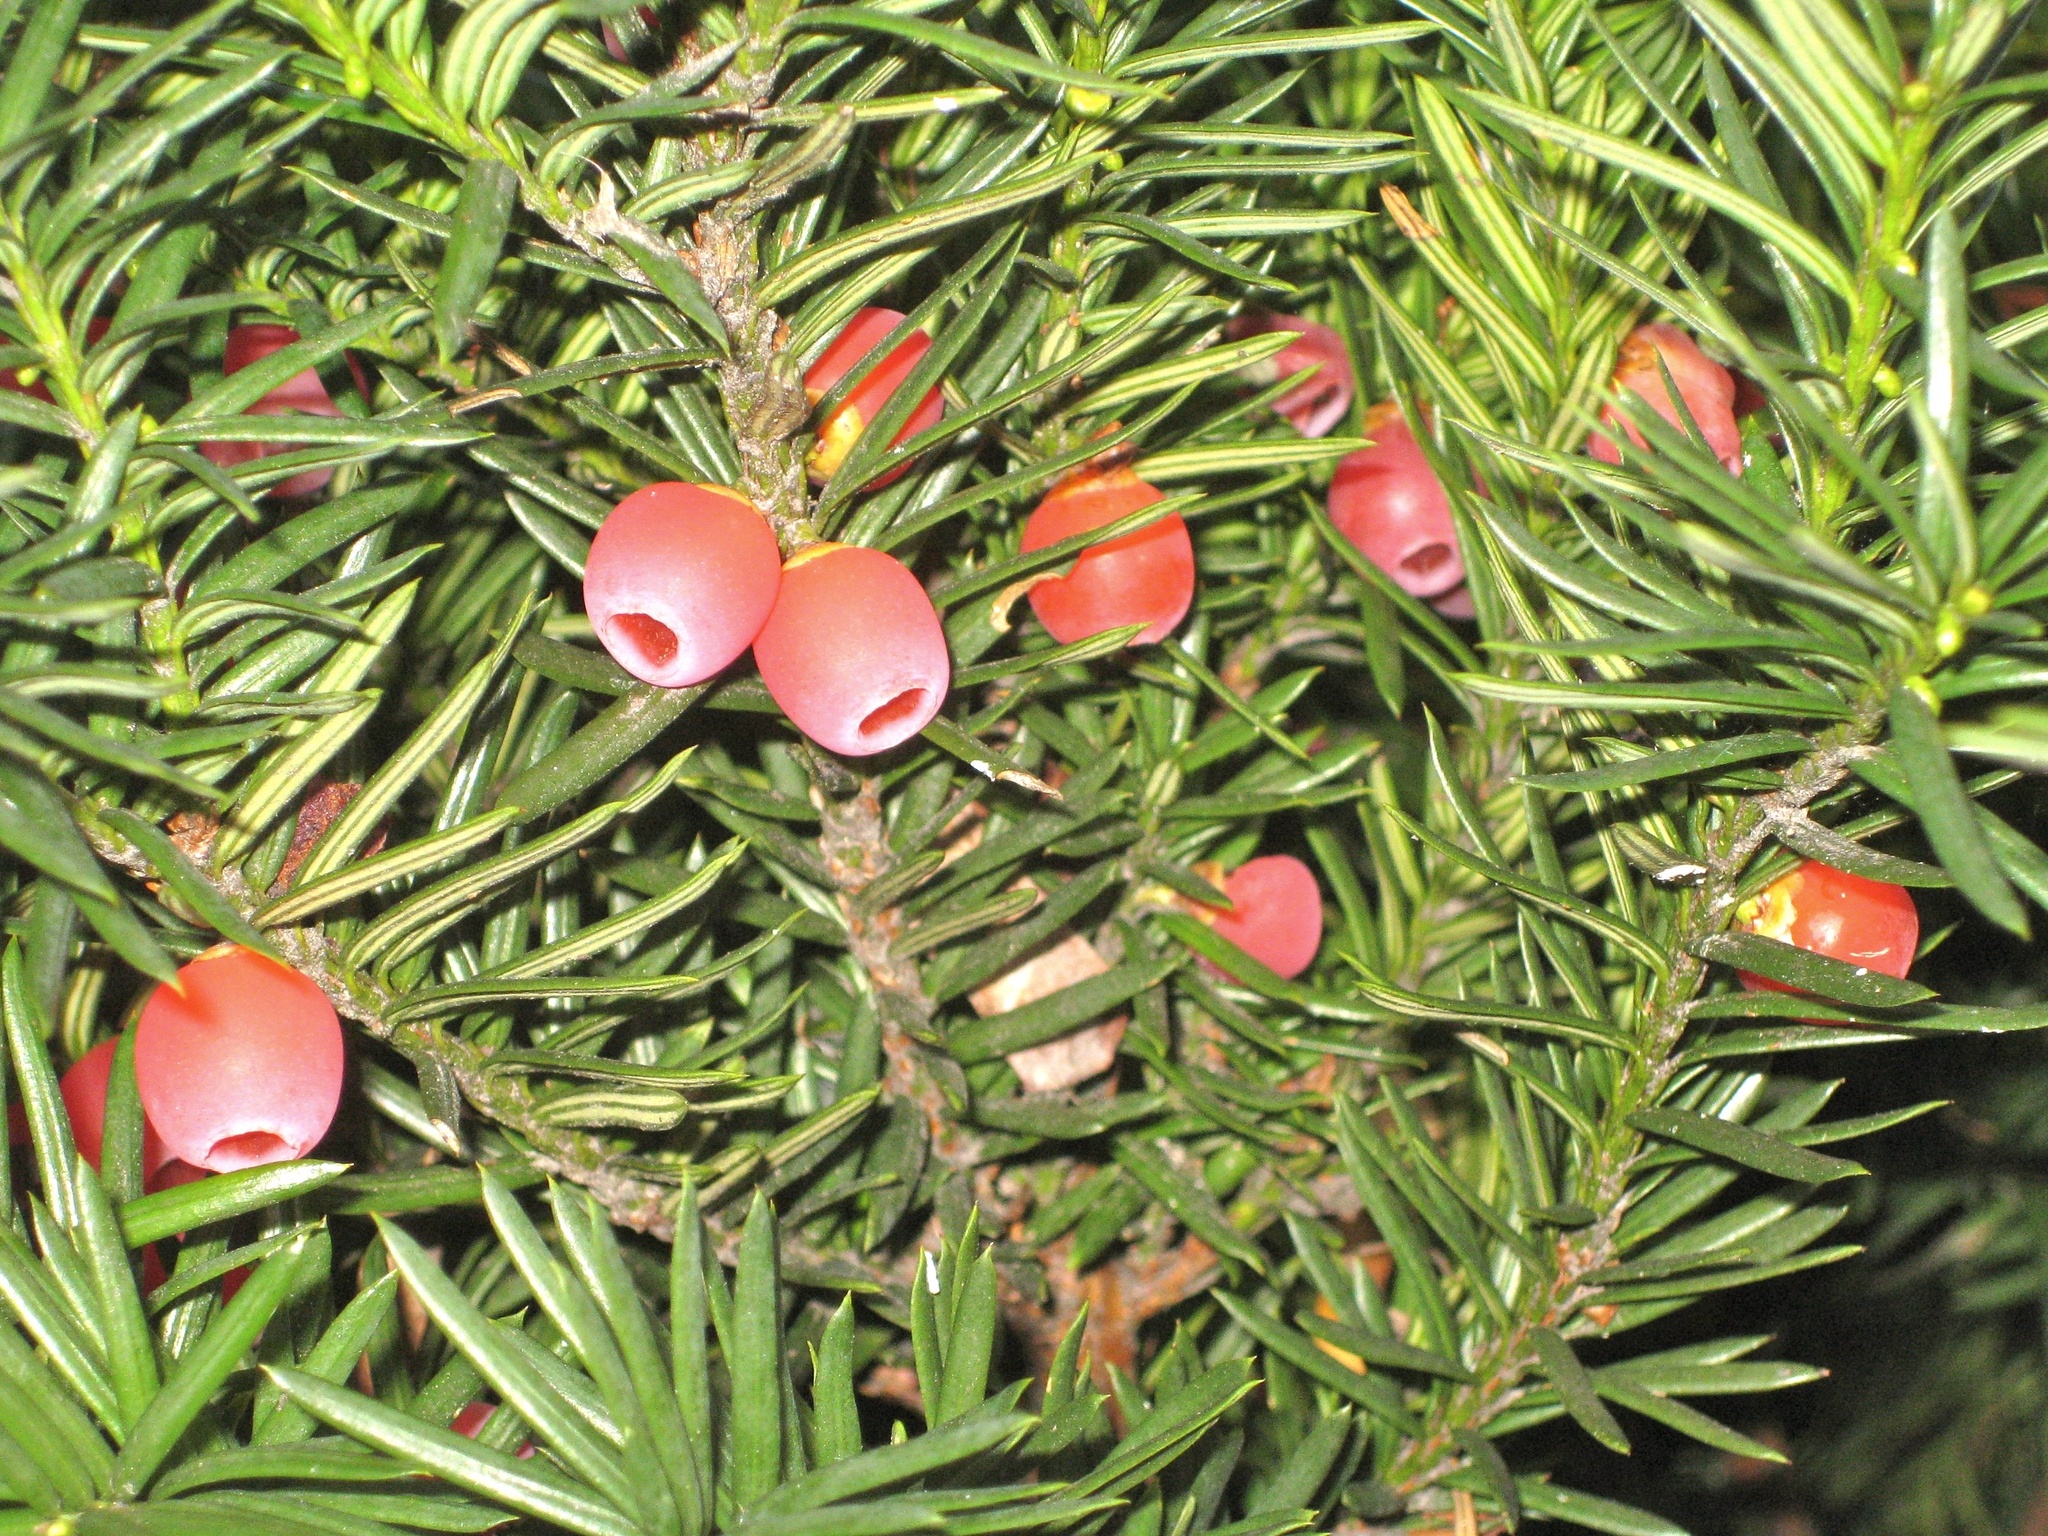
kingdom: Plantae
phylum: Tracheophyta
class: Pinopsida
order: Pinales
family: Taxaceae
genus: Taxus
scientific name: Taxus cuspidata
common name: Japanese yew
